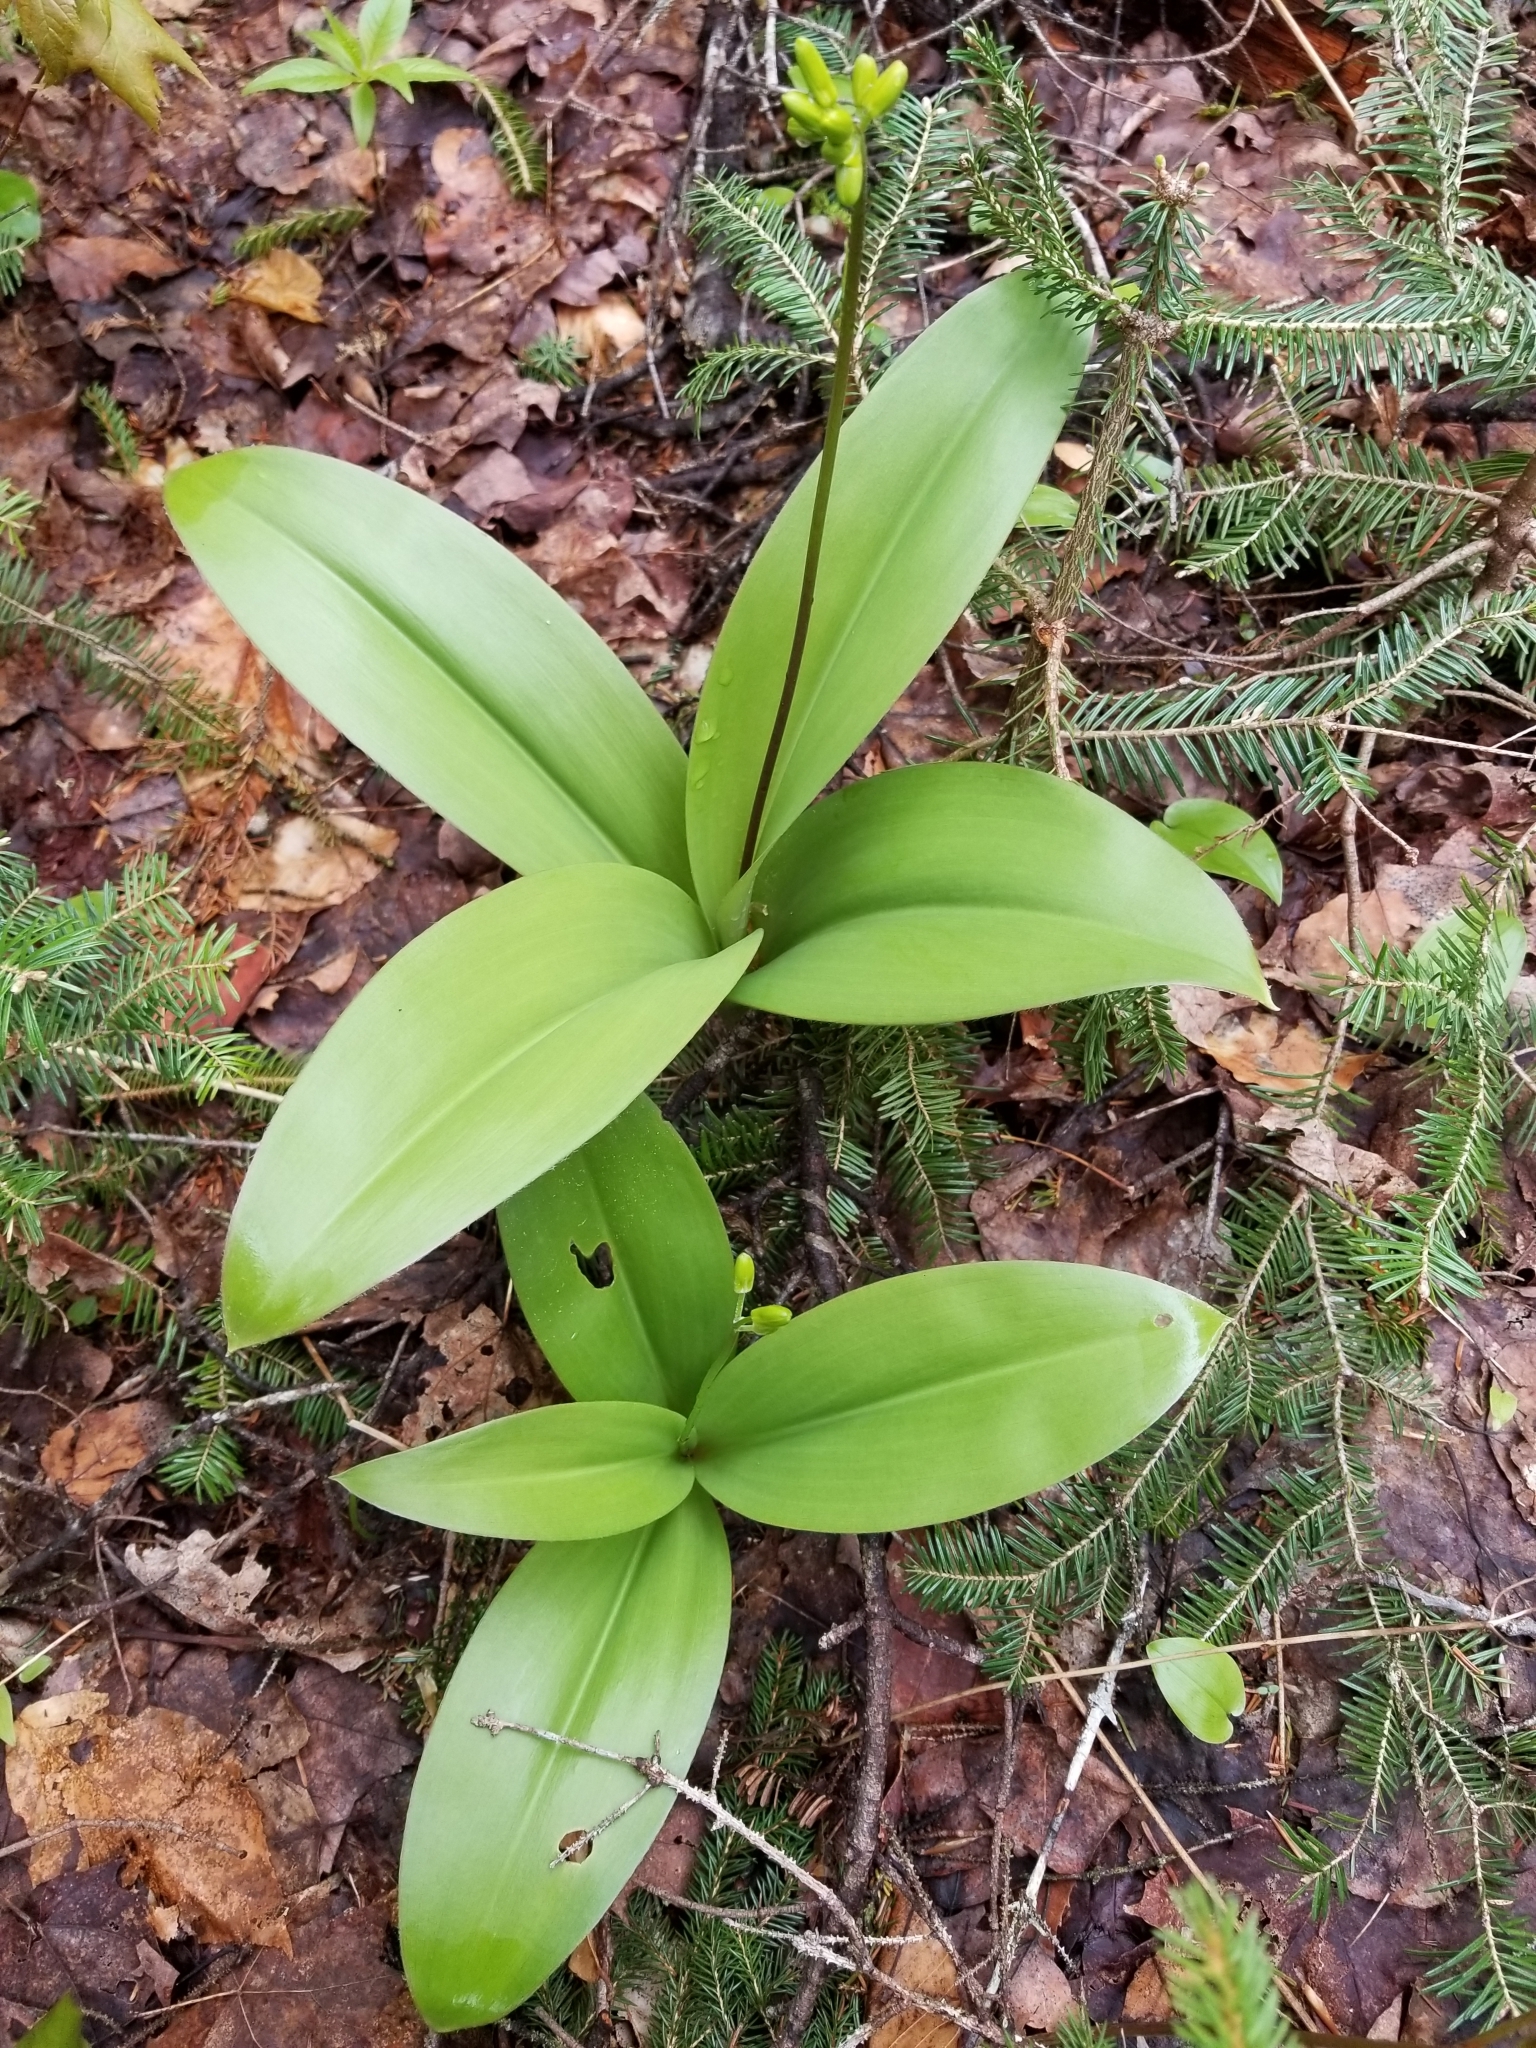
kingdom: Plantae
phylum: Tracheophyta
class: Liliopsida
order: Liliales
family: Liliaceae
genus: Clintonia
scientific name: Clintonia borealis
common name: Yellow clintonia
